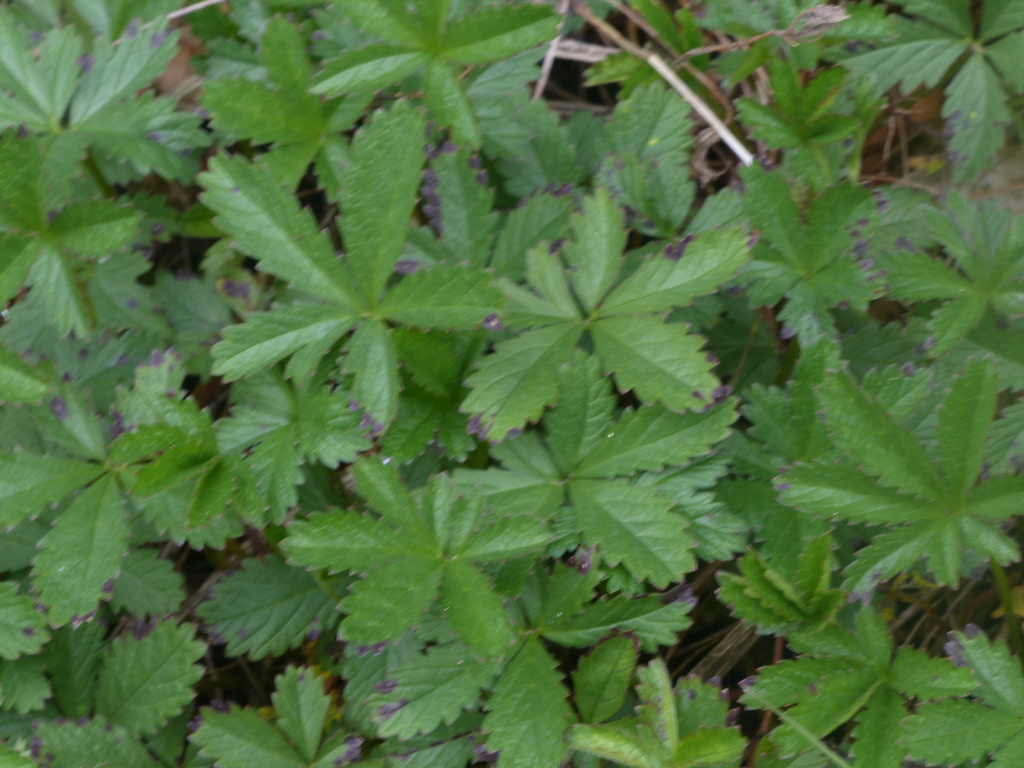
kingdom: Plantae
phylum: Tracheophyta
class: Magnoliopsida
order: Rosales
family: Rosaceae
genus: Potentilla
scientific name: Potentilla reptans
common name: Creeping cinquefoil
